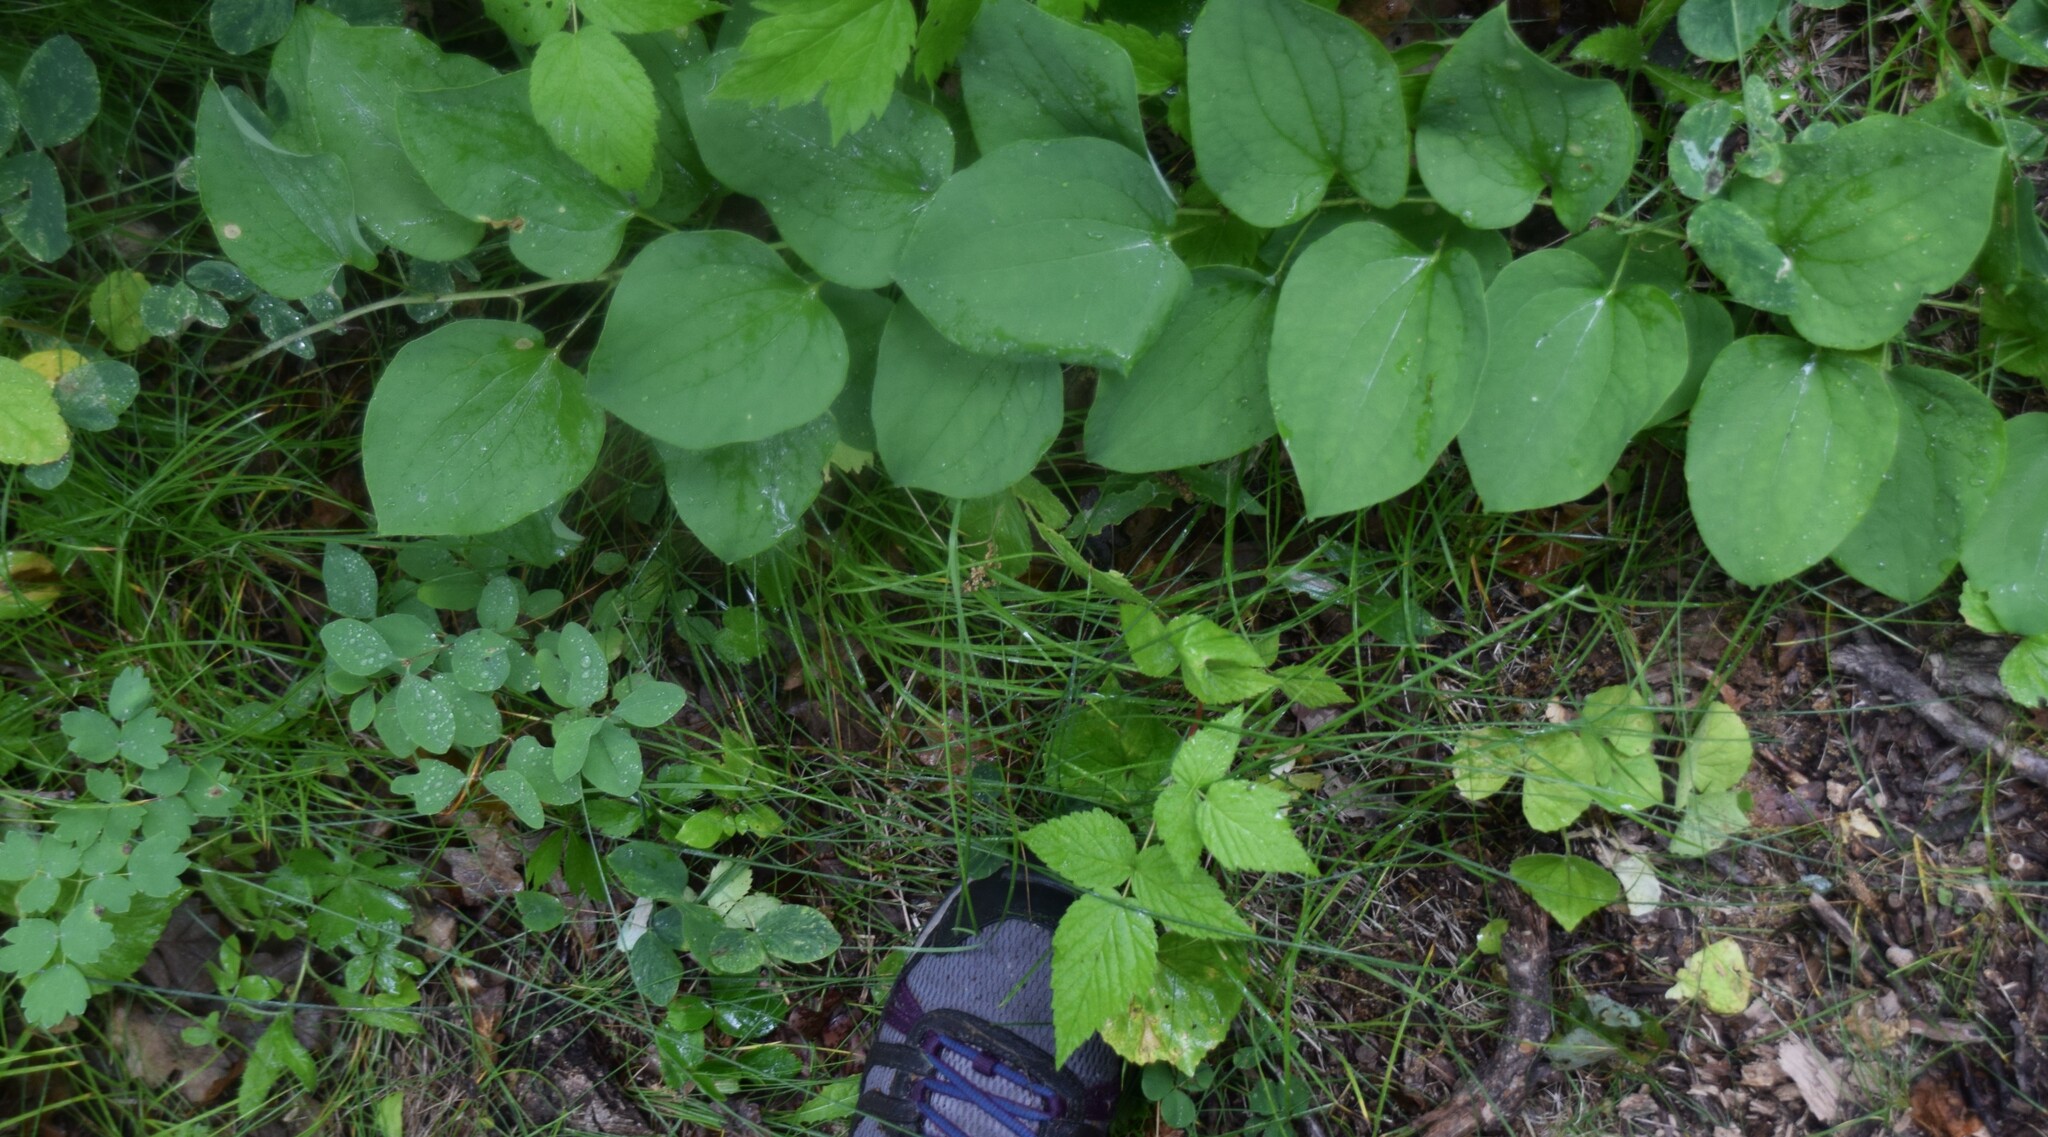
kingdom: Plantae
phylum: Tracheophyta
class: Liliopsida
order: Liliales
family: Smilacaceae
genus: Smilax
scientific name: Smilax lasioneura
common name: Blue ridge carrionflower
